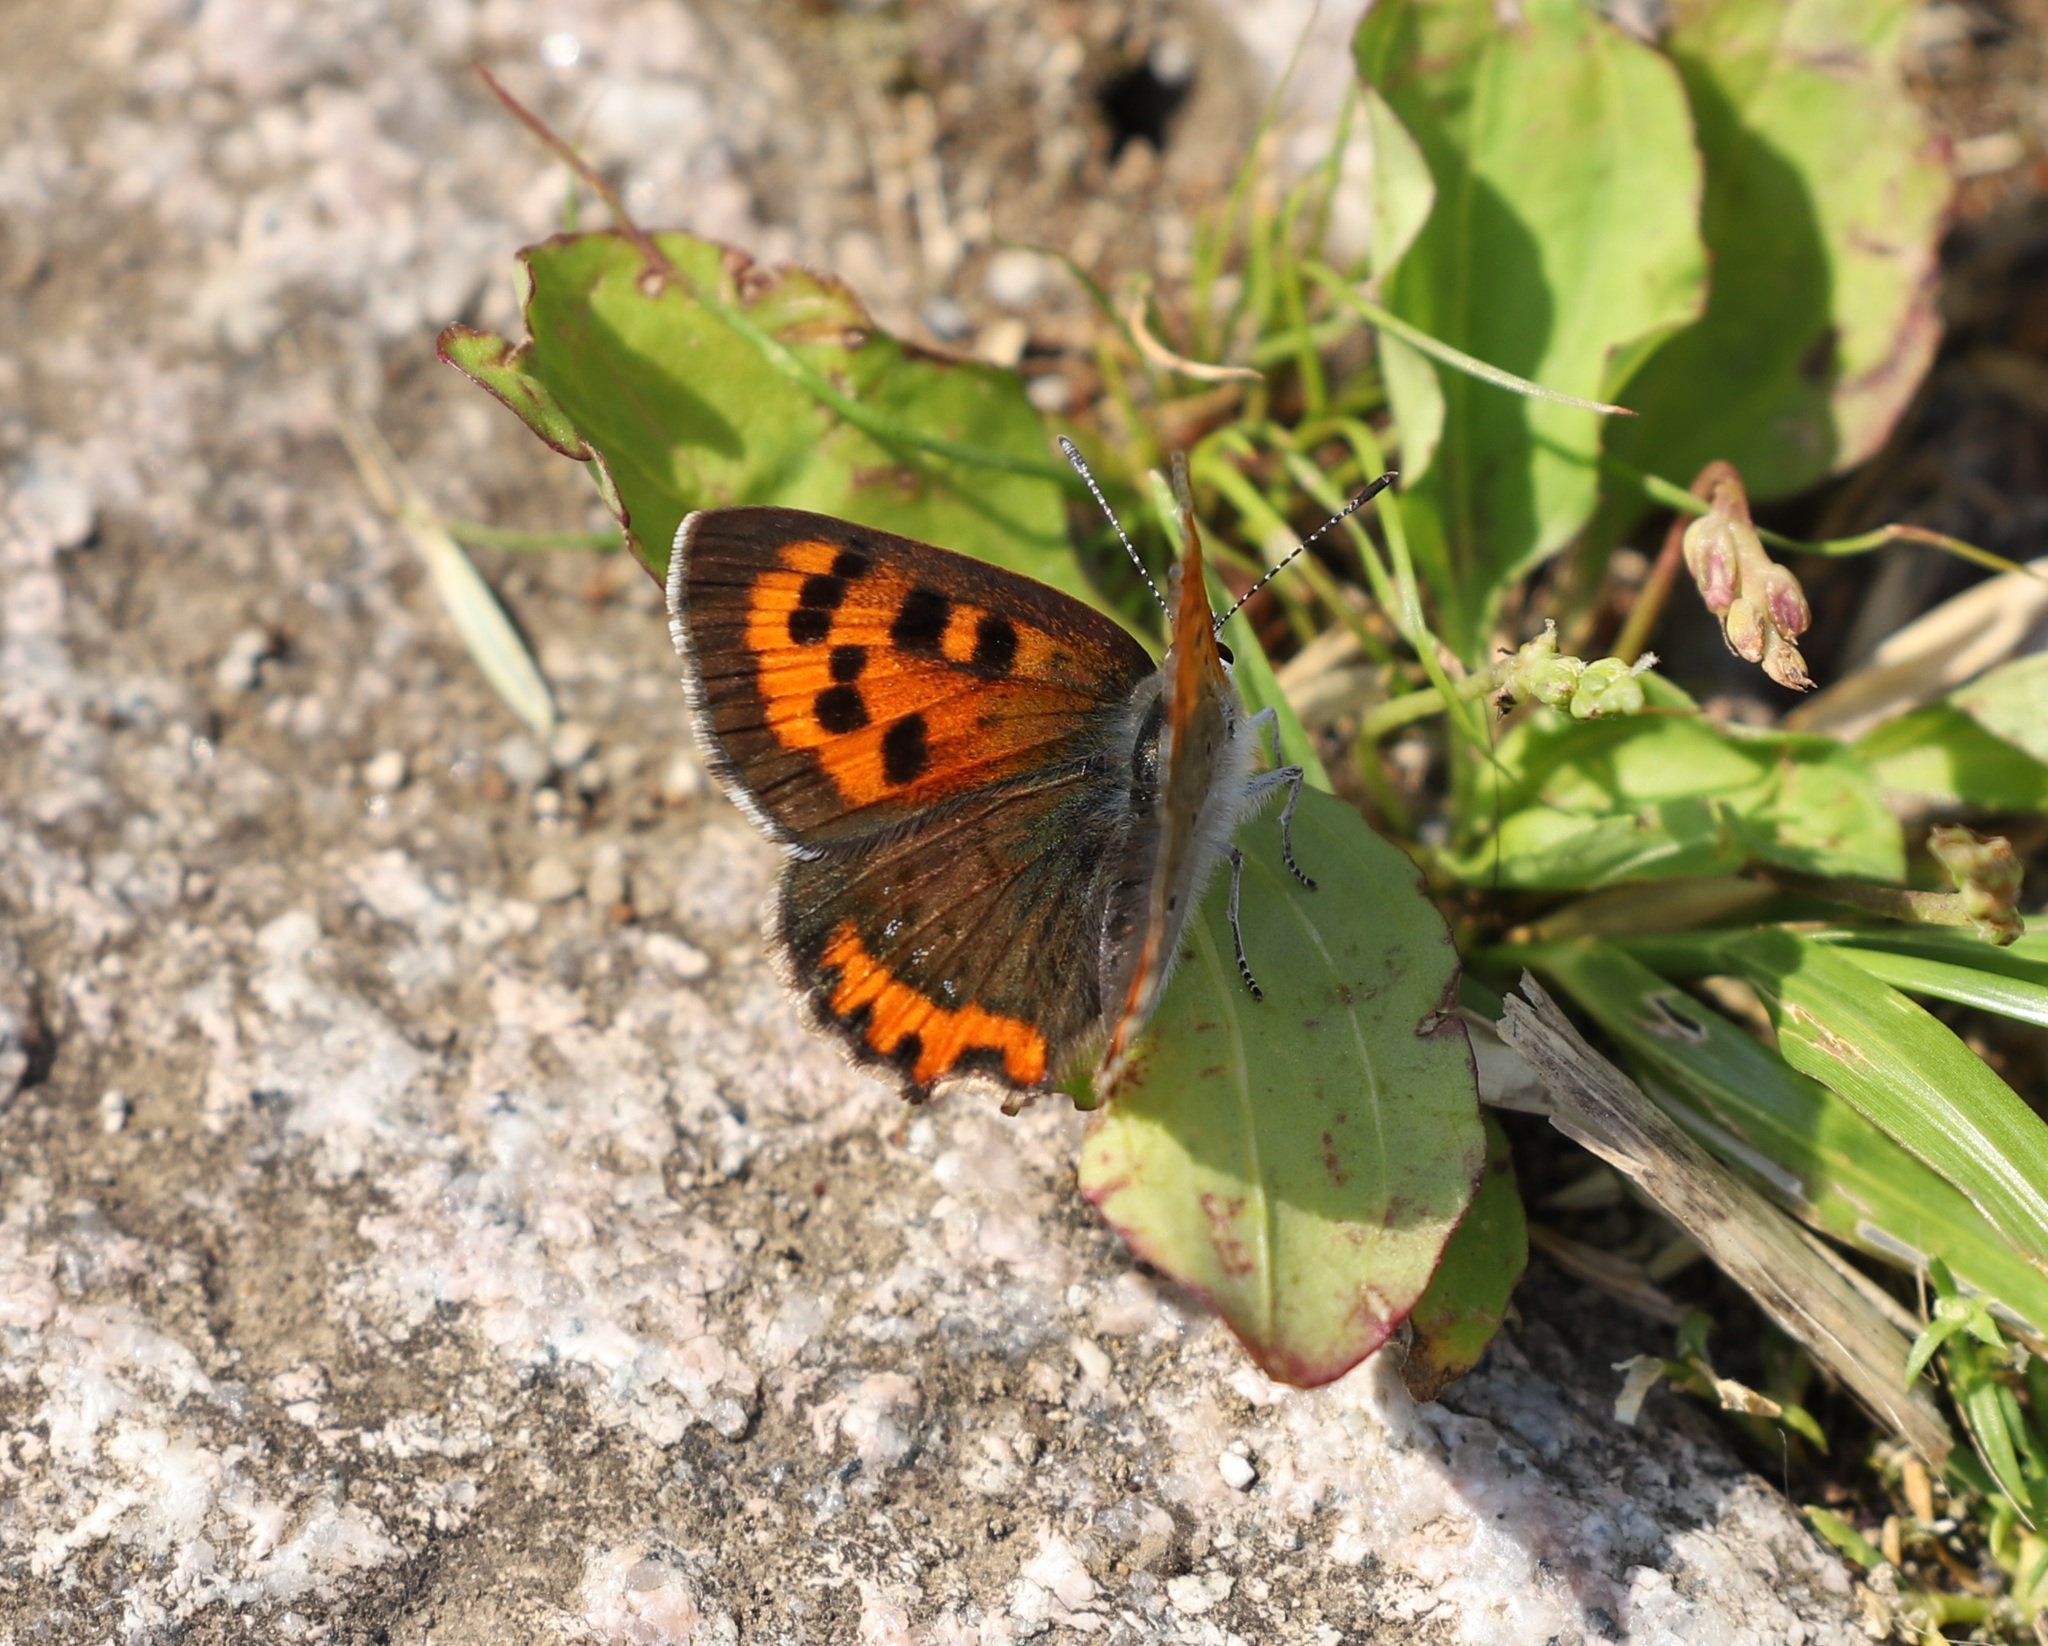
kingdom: Animalia
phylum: Arthropoda
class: Insecta
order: Lepidoptera
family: Lycaenidae
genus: Lycaena
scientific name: Lycaena phlaeas
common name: Small copper
